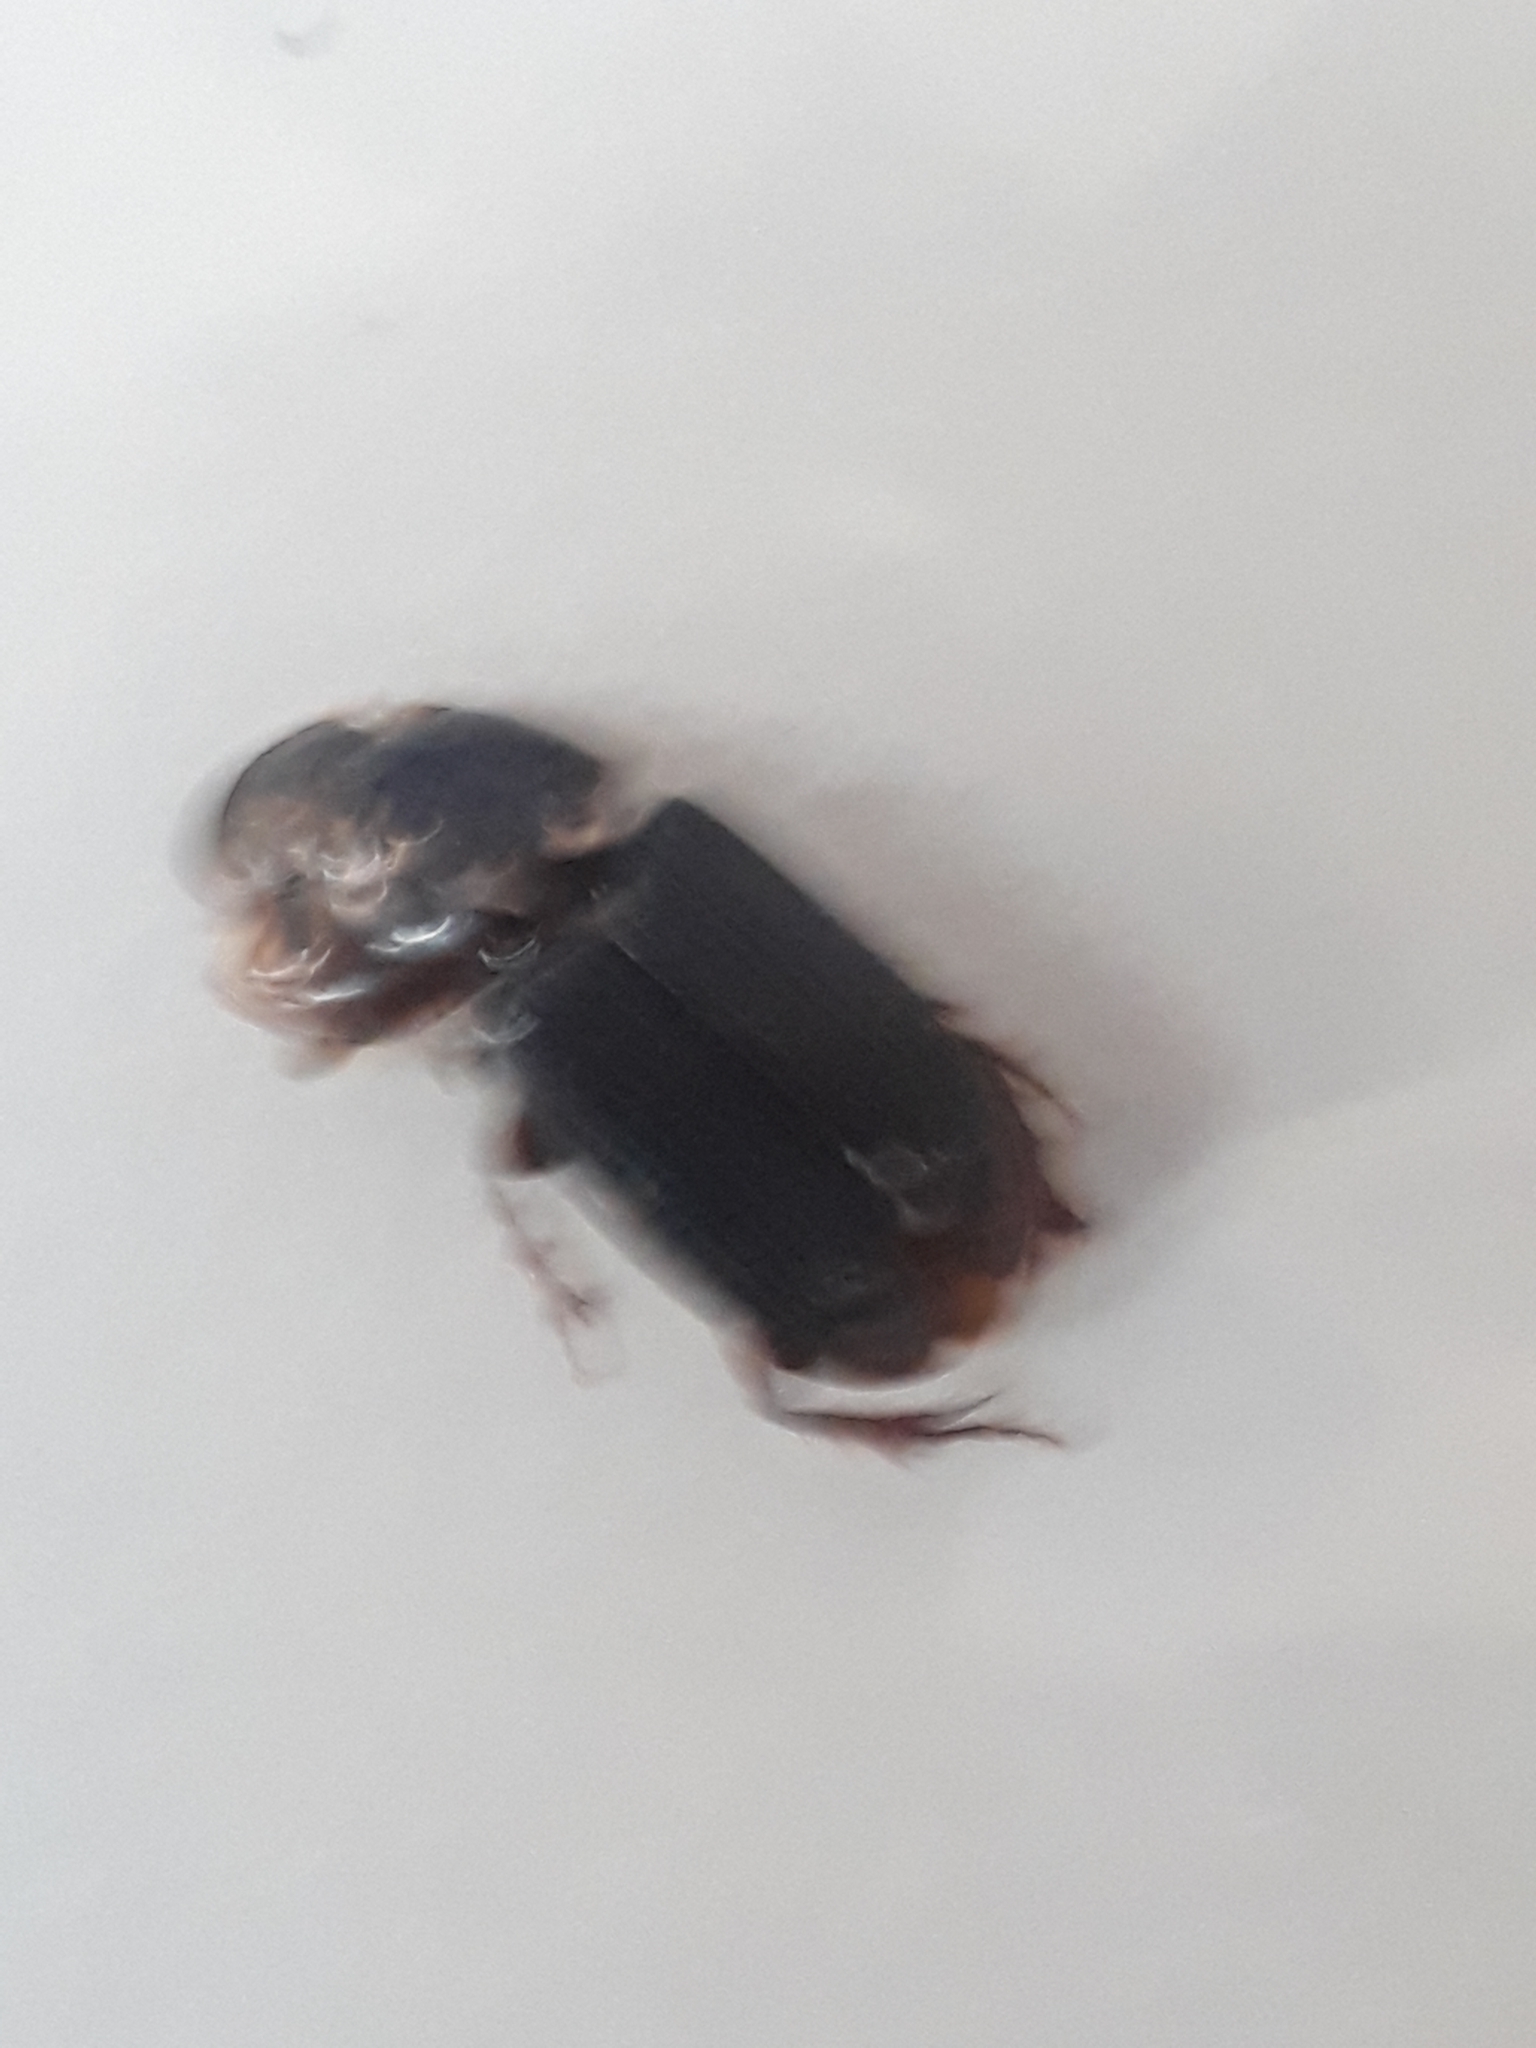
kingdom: Animalia
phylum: Arthropoda
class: Insecta
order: Coleoptera
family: Scarabaeidae
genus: Acrossidius
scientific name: Acrossidius tasmaniae
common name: Black-headed pasture cockchafer
